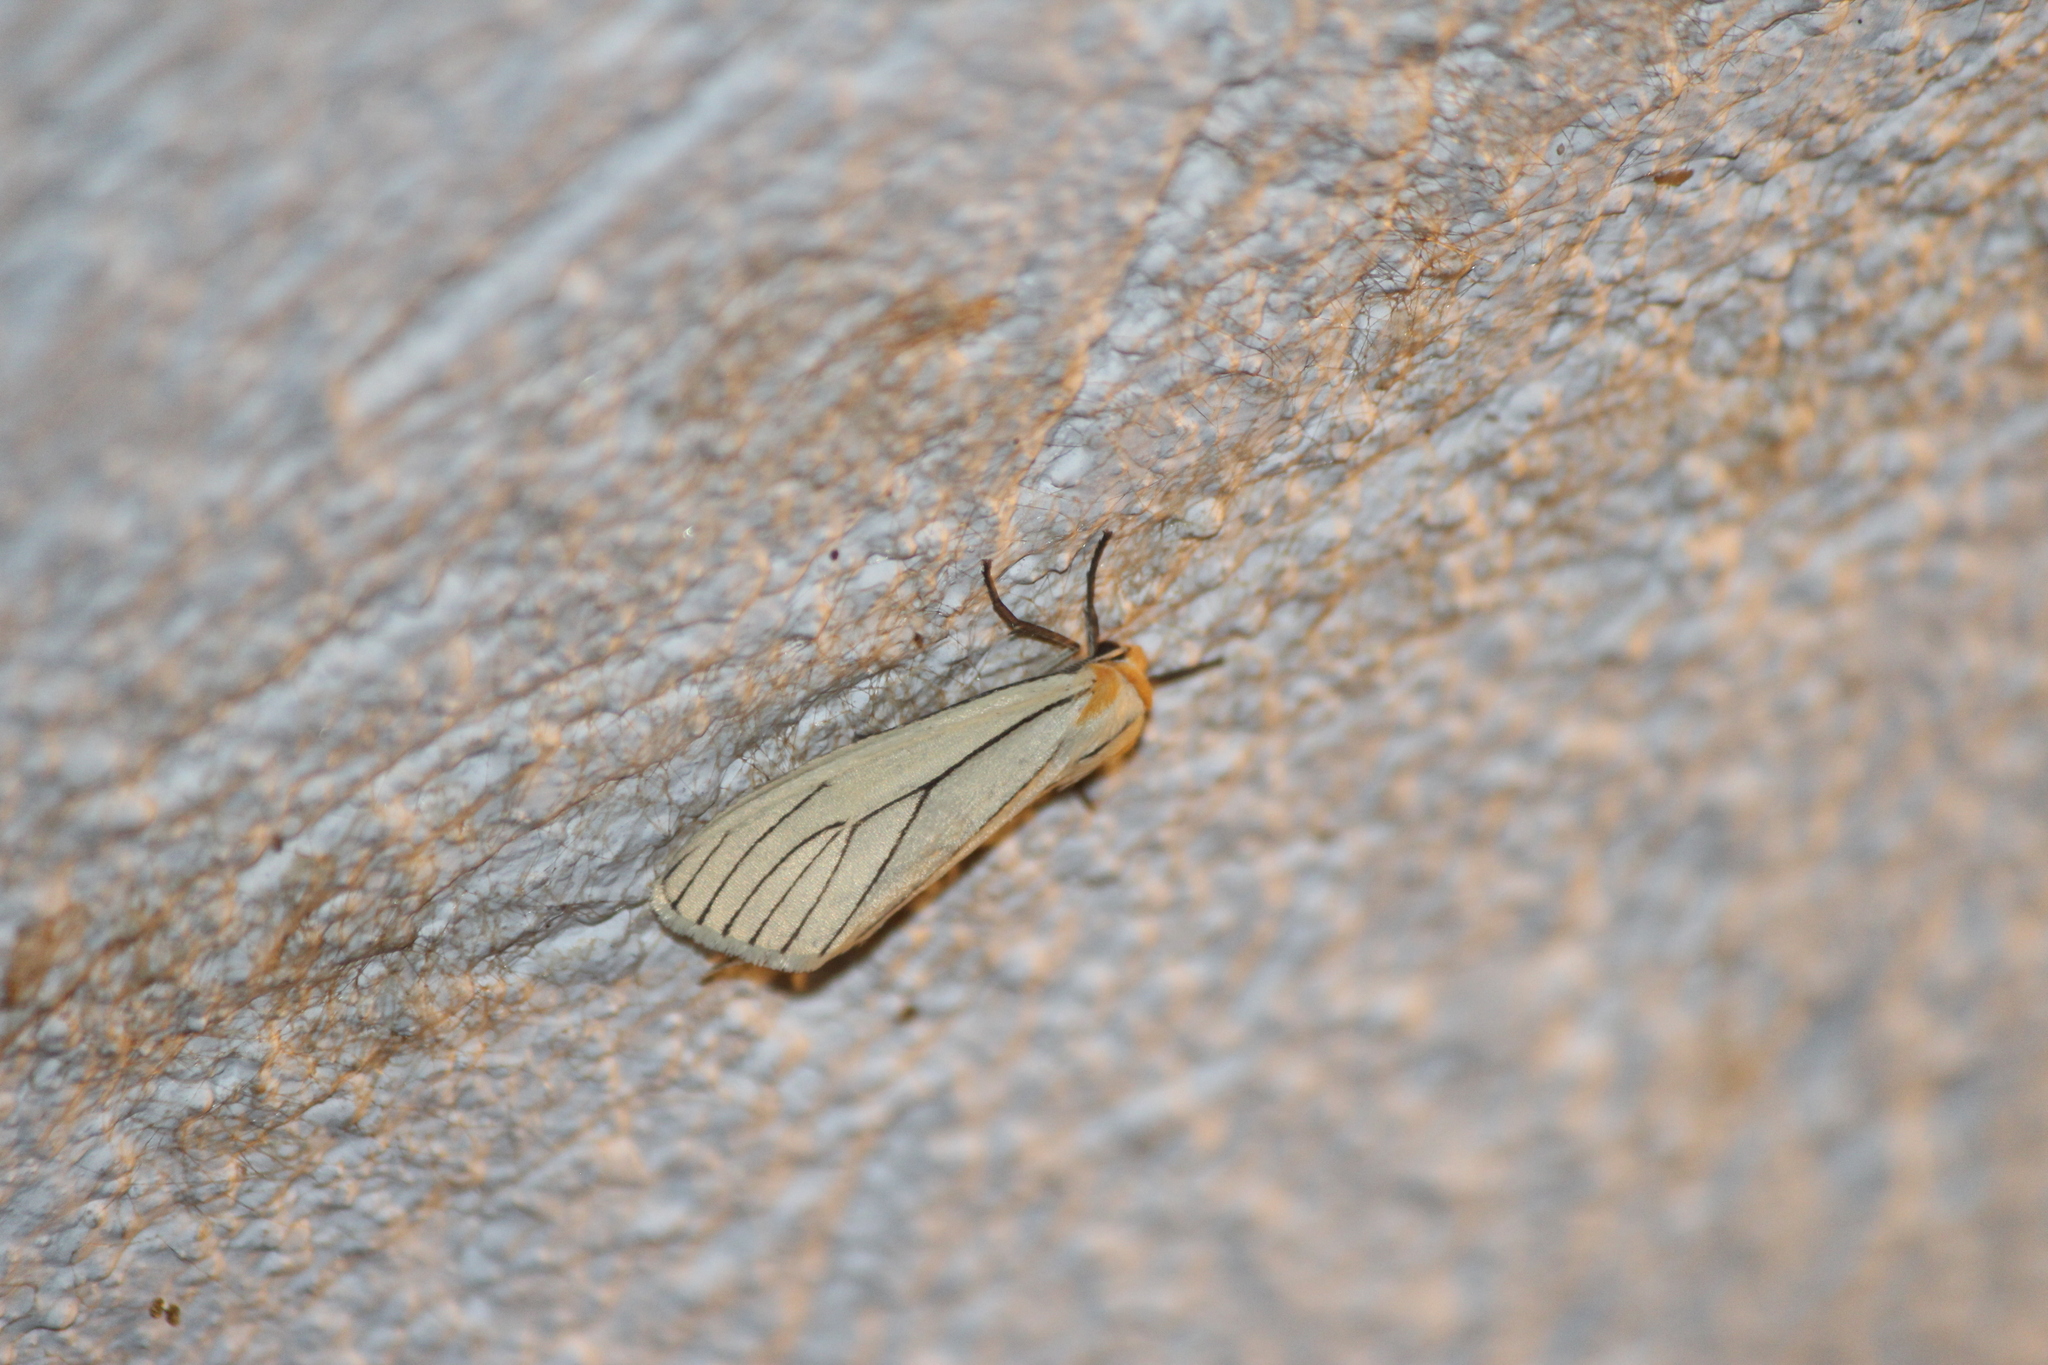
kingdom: Animalia
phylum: Arthropoda
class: Insecta
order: Lepidoptera
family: Erebidae
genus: Spilosoma
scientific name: Spilosoma pelopea
